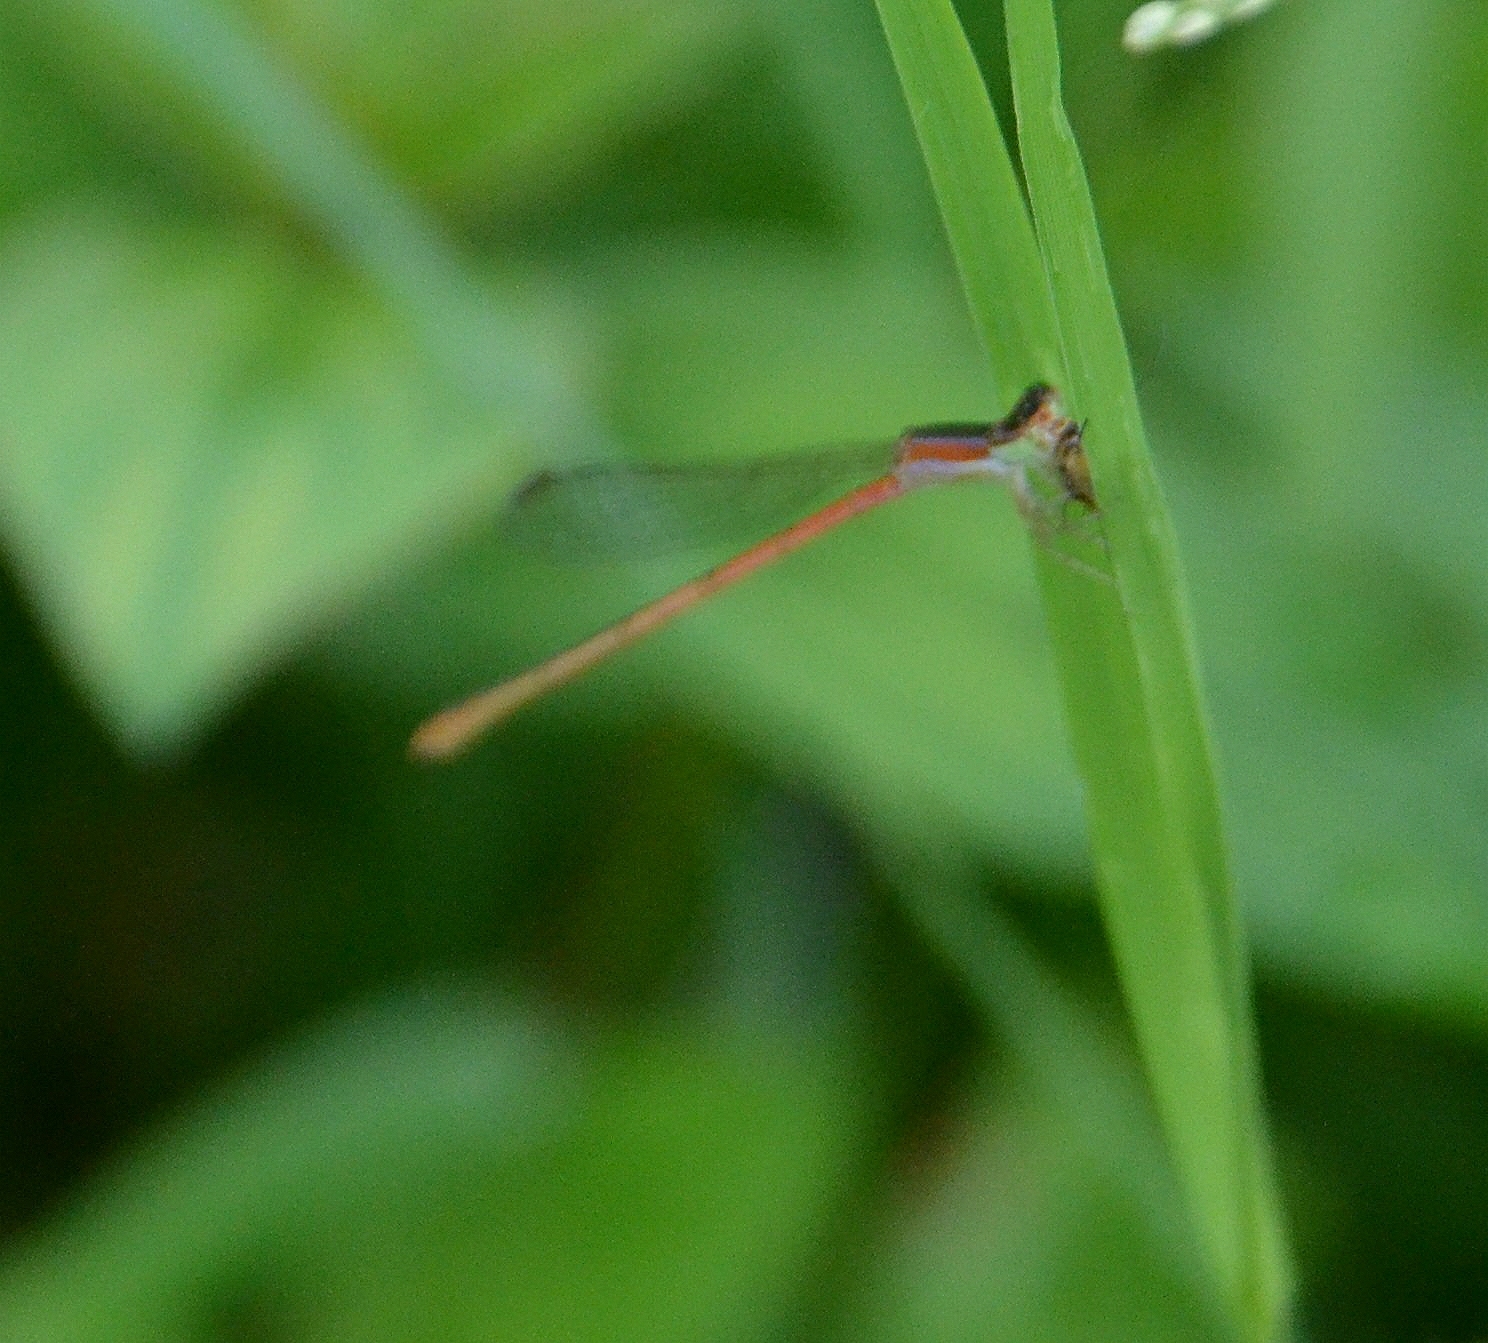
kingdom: Animalia
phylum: Arthropoda
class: Insecta
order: Odonata
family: Coenagrionidae
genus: Agriocnemis
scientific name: Agriocnemis pygmaea
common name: Pygmy wisp
